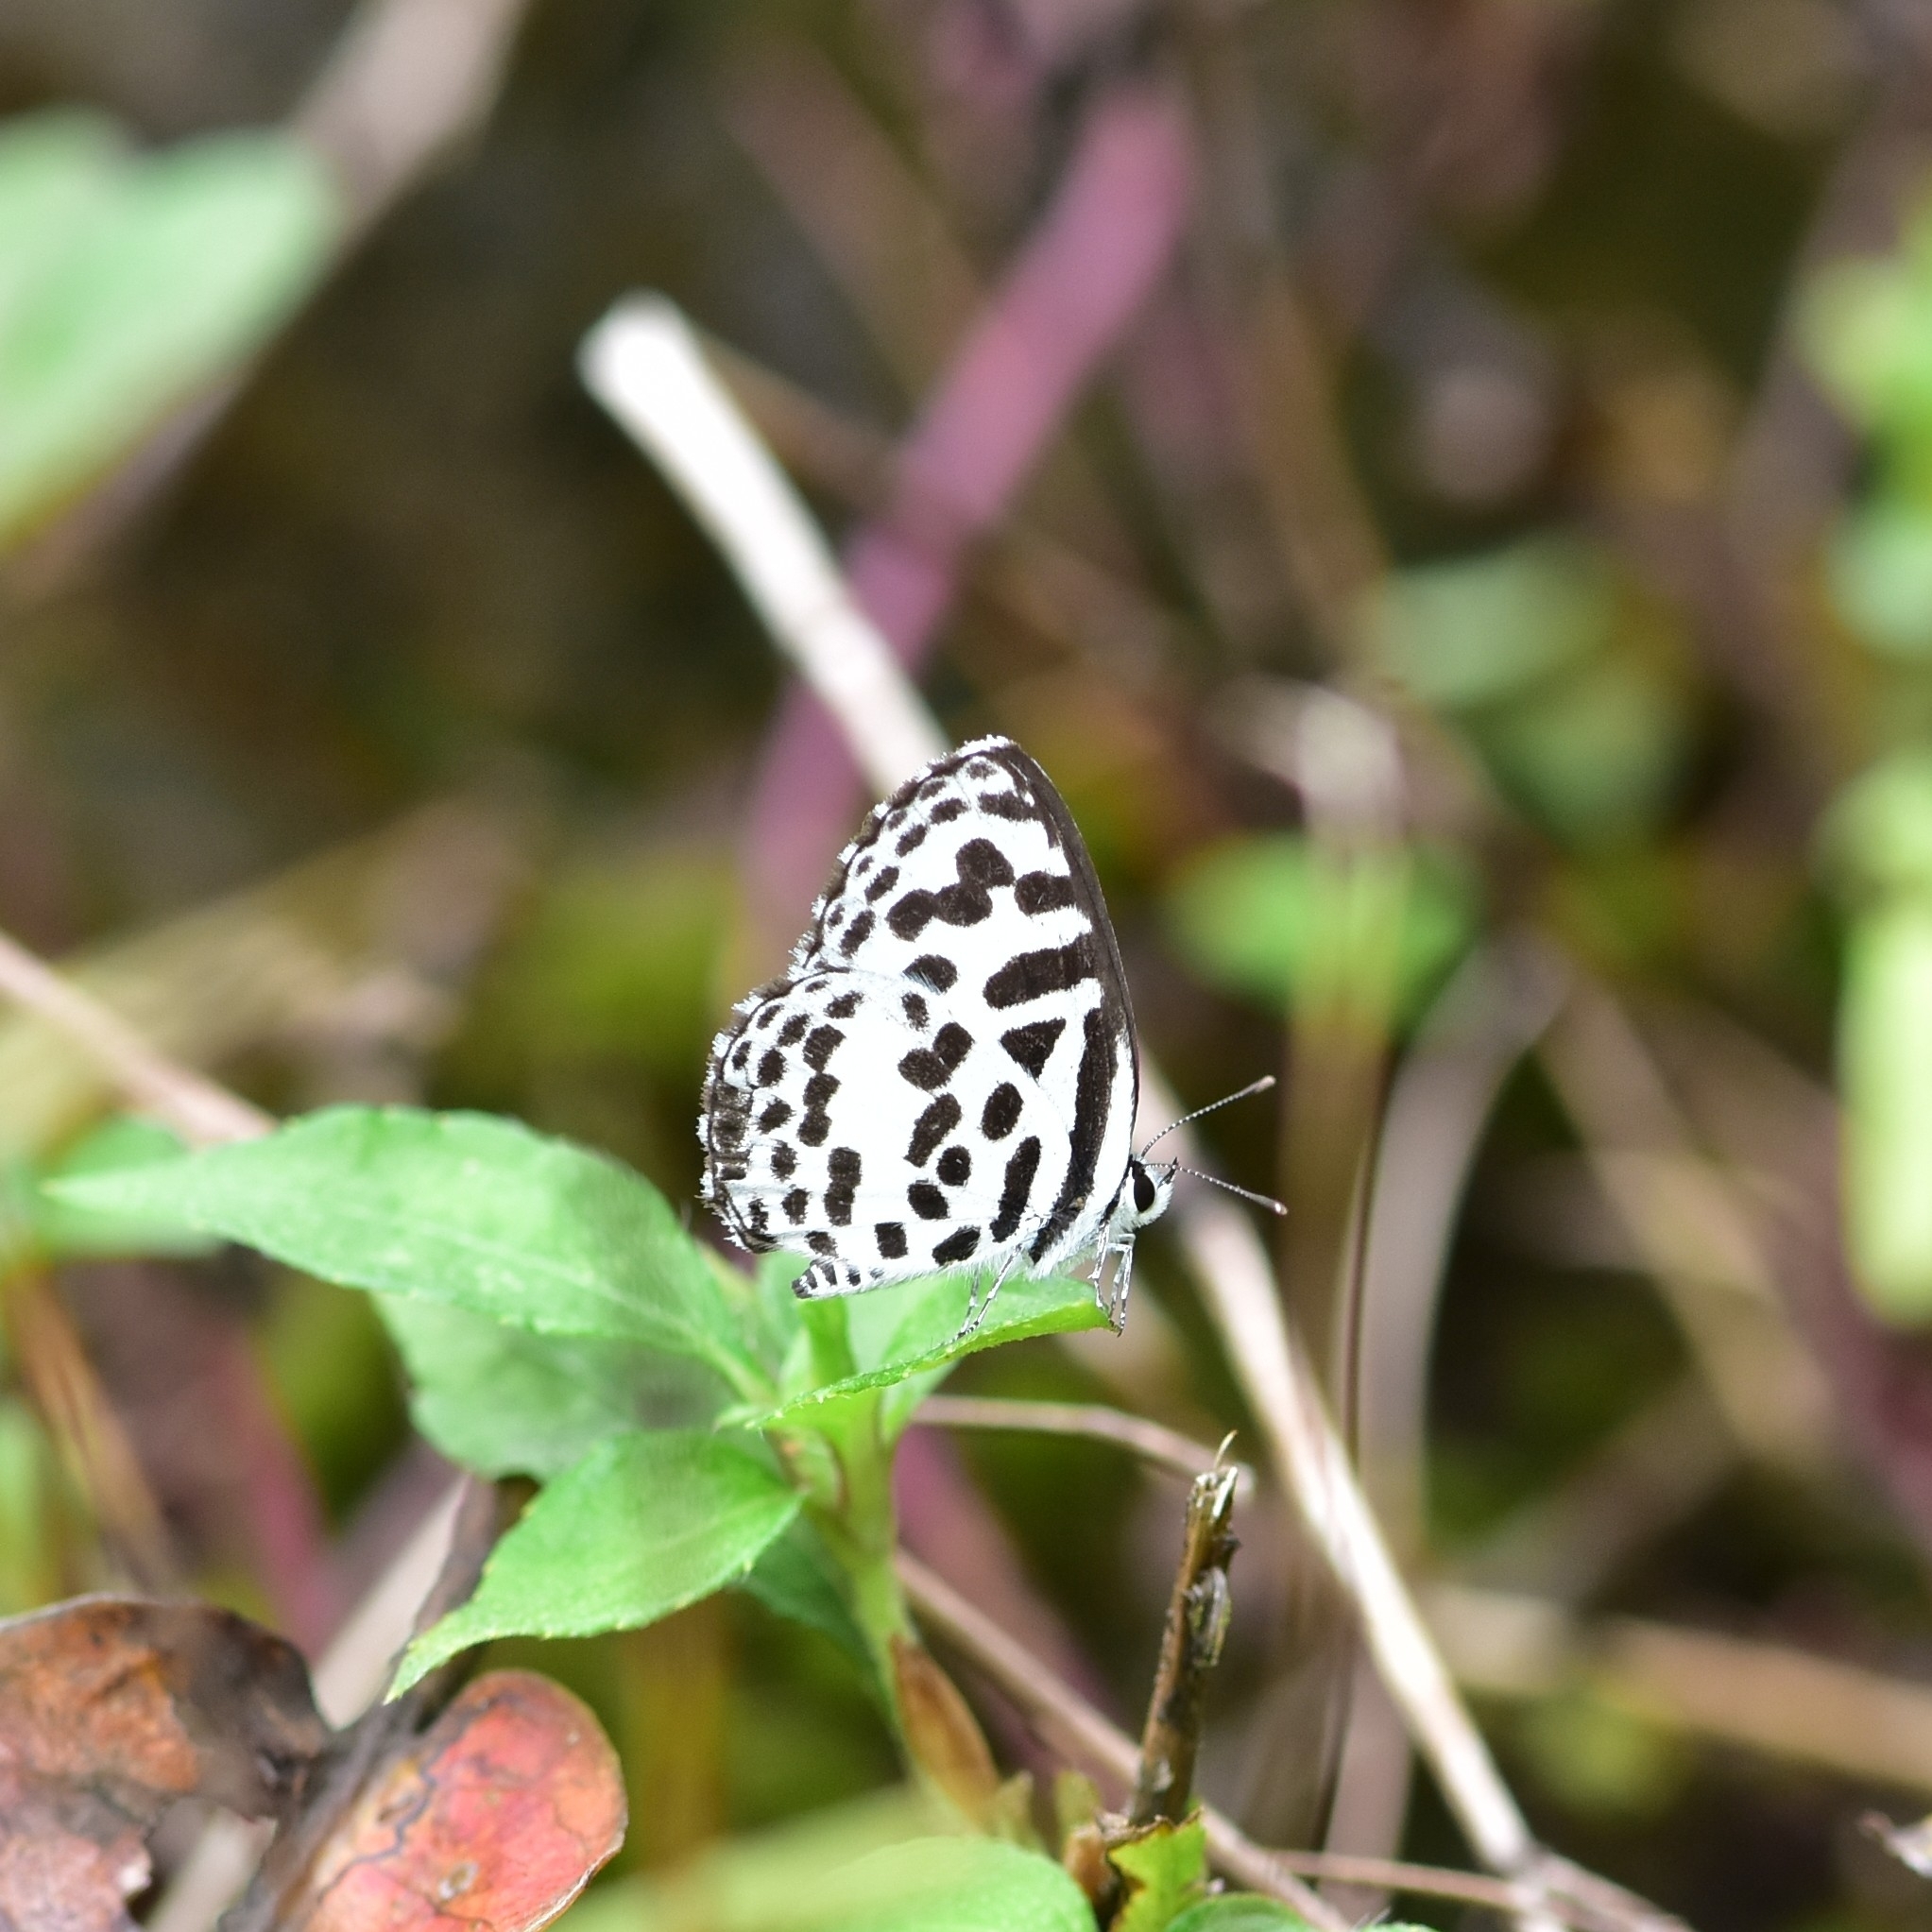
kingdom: Animalia
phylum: Arthropoda
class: Insecta
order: Lepidoptera
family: Lycaenidae
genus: Castalius
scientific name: Castalius rosimon
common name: Common pierrot
